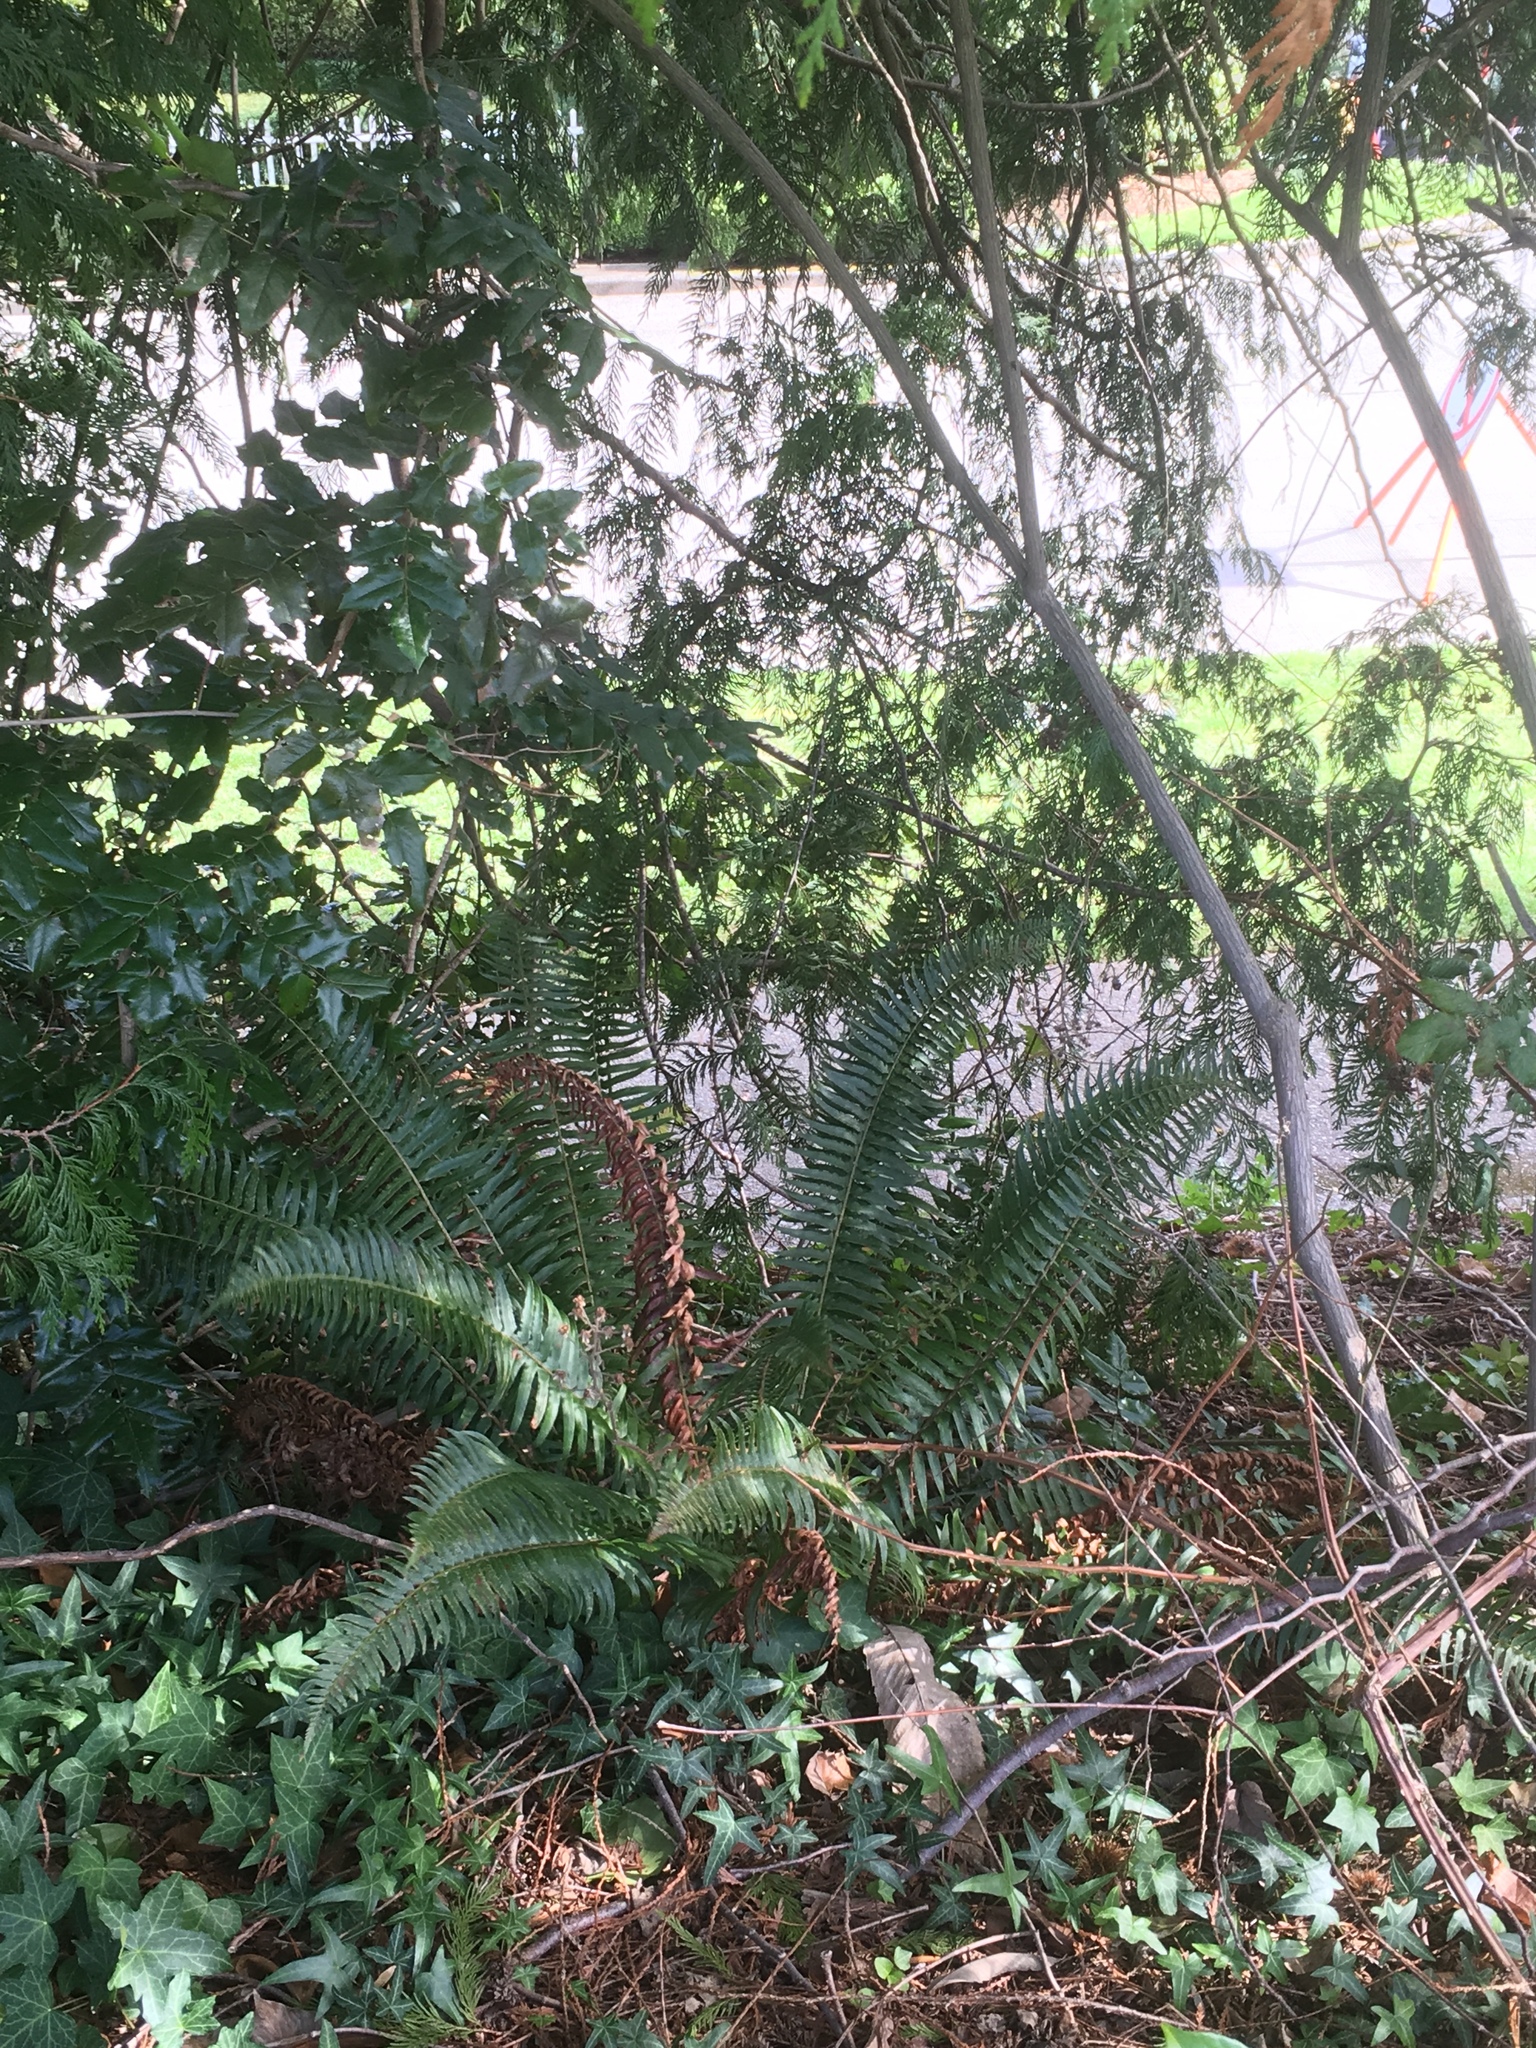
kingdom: Plantae
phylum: Tracheophyta
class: Polypodiopsida
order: Polypodiales
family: Dryopteridaceae
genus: Polystichum
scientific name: Polystichum munitum
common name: Western sword-fern
